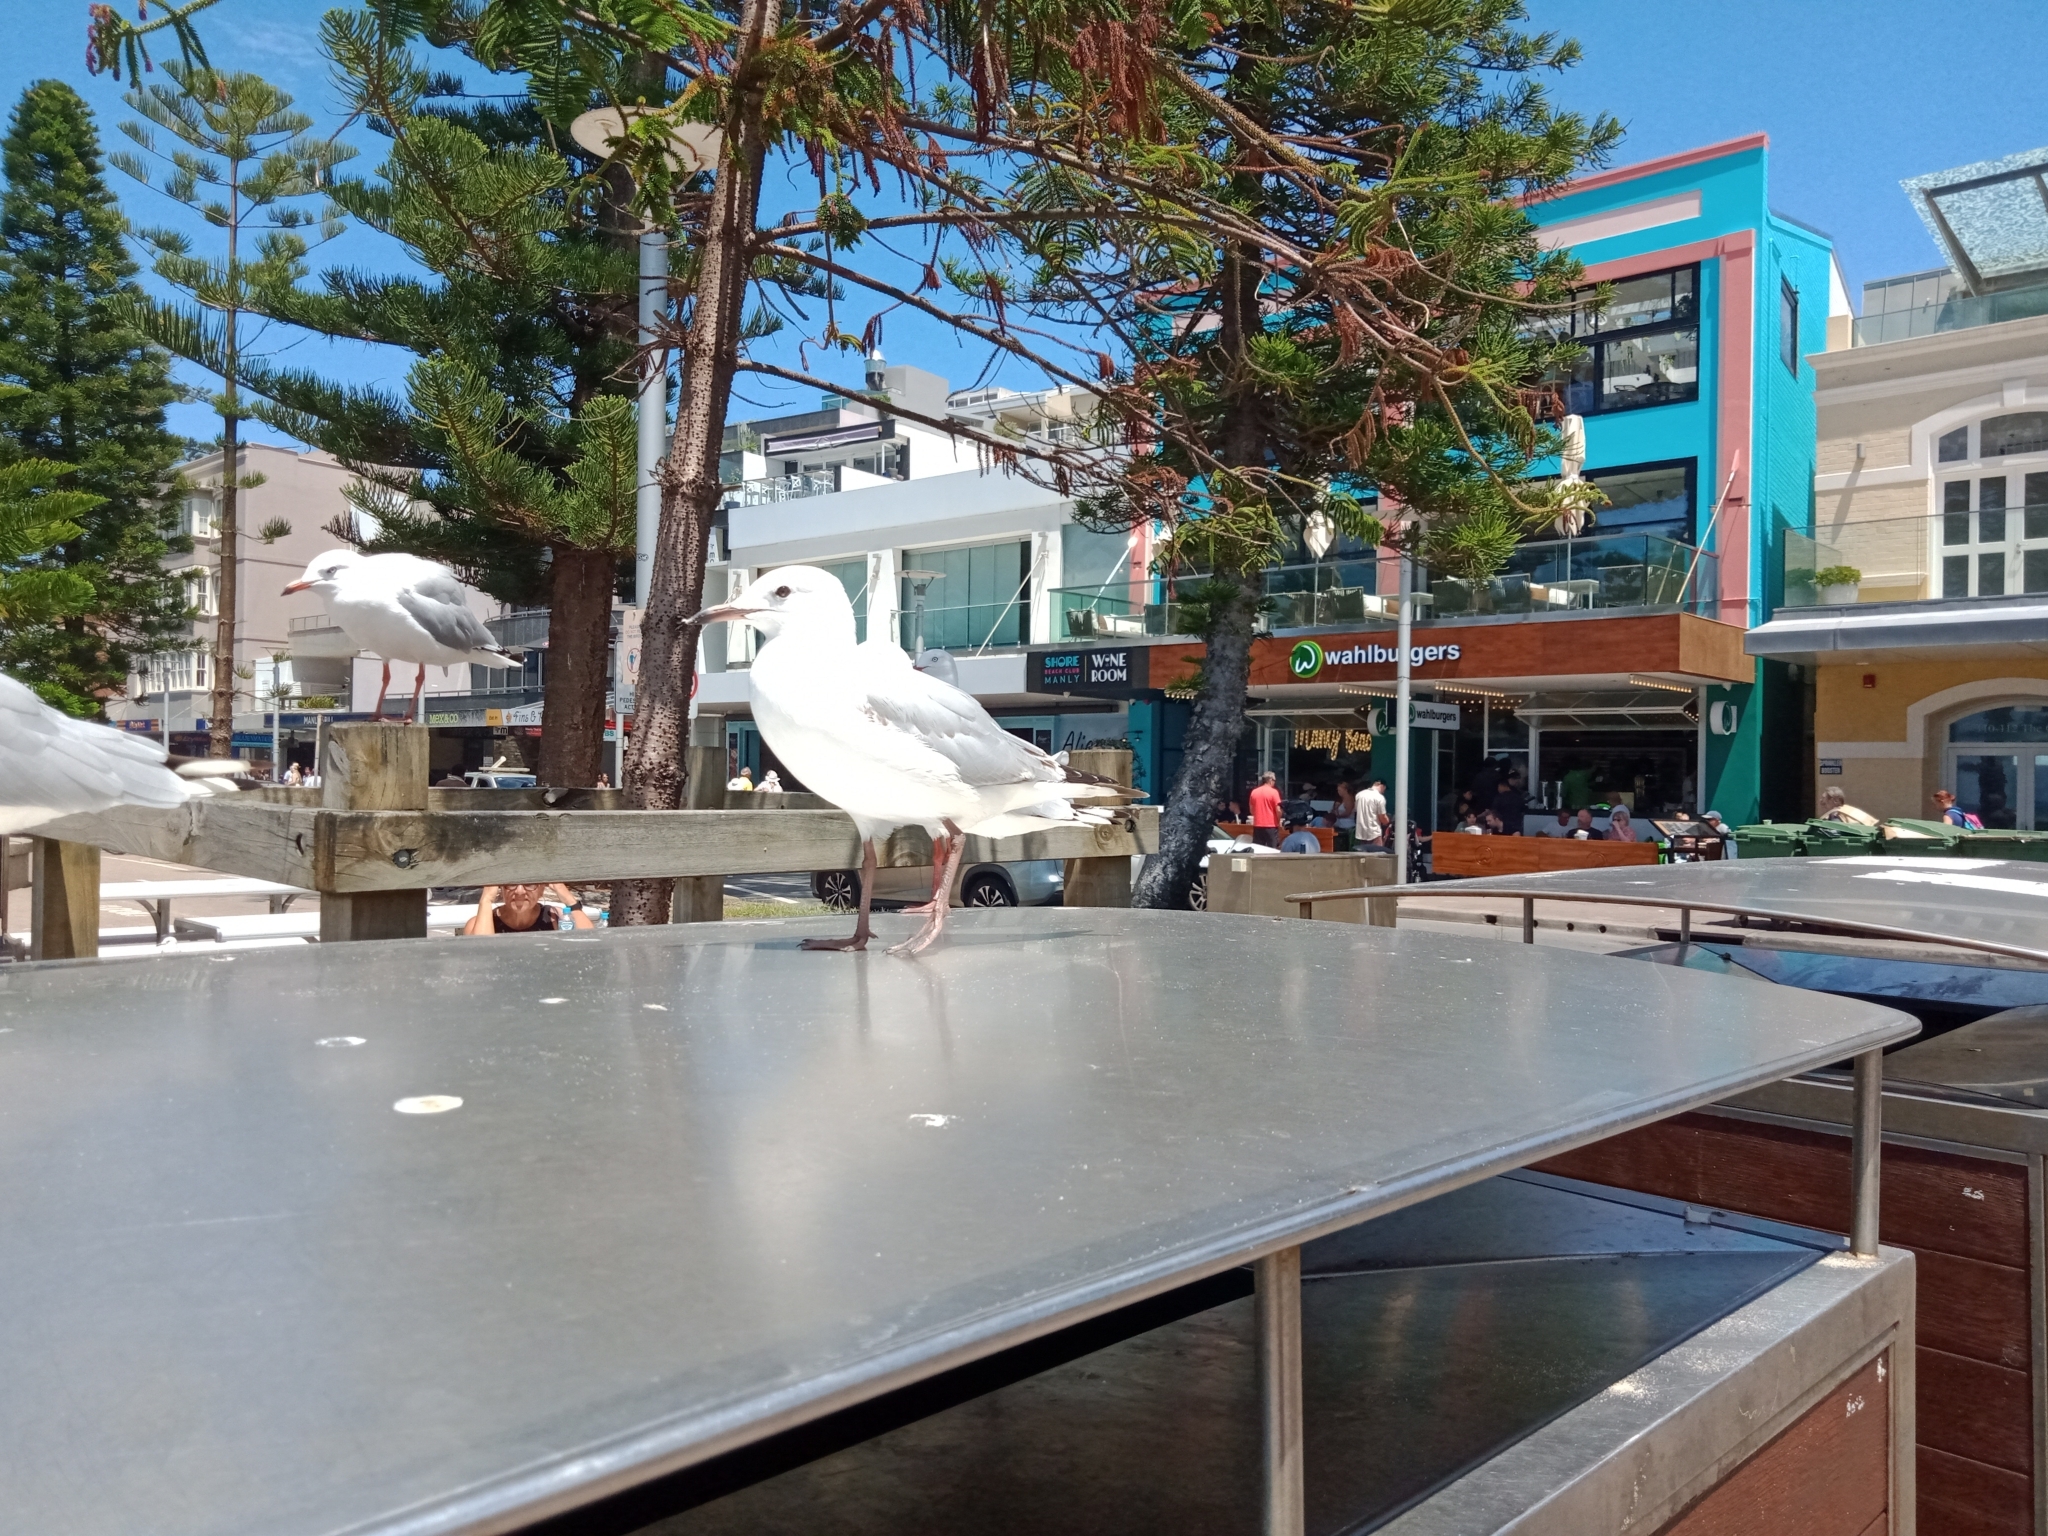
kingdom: Animalia
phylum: Chordata
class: Aves
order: Charadriiformes
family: Laridae
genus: Chroicocephalus
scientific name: Chroicocephalus novaehollandiae
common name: Silver gull
